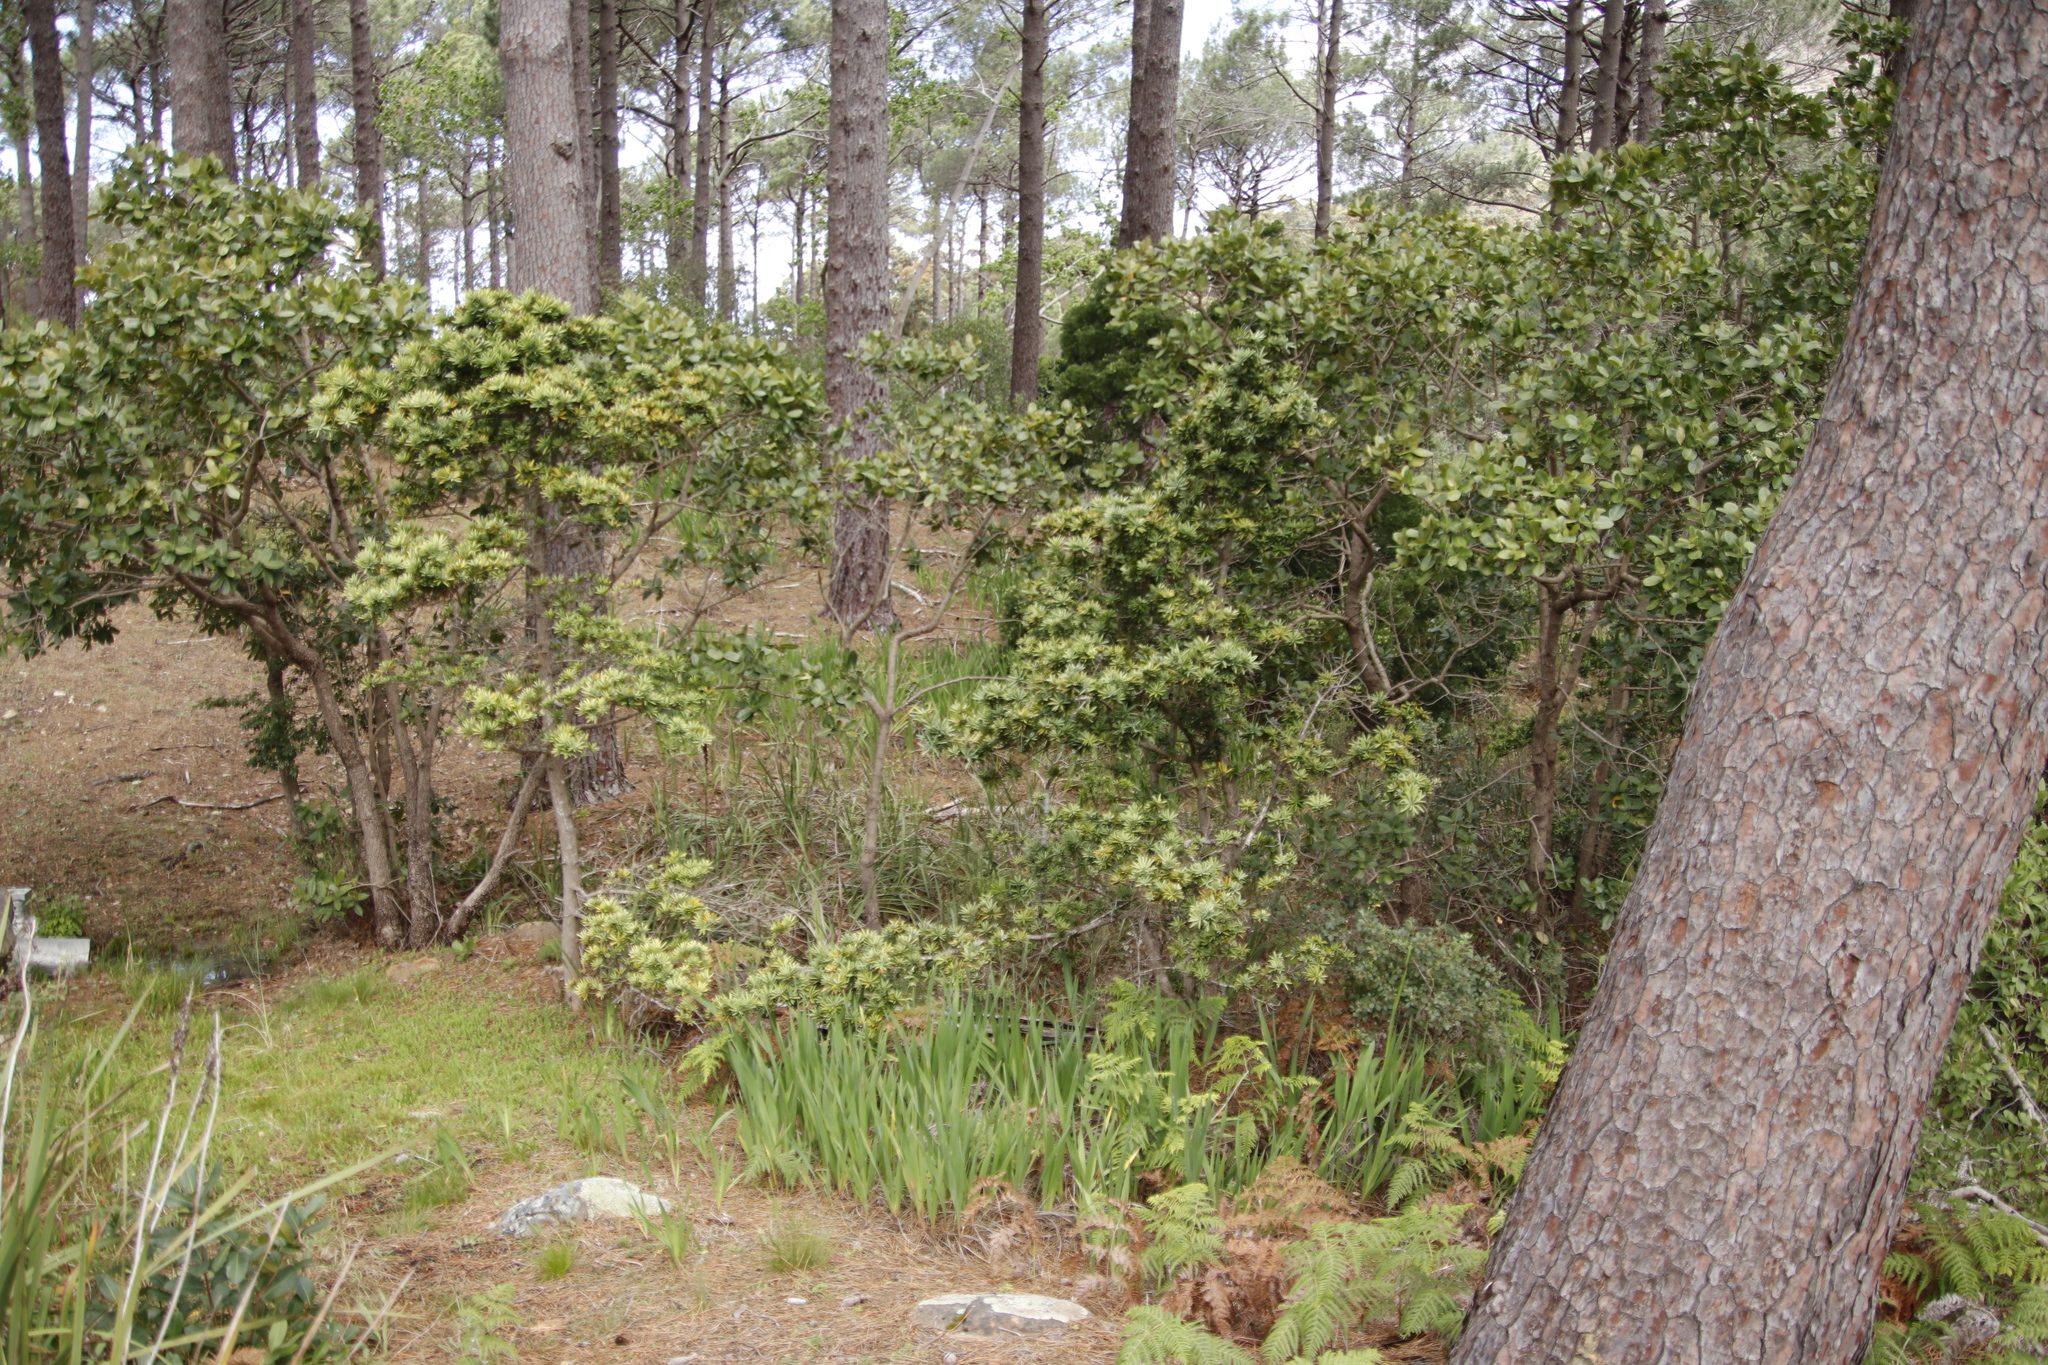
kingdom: Plantae
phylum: Tracheophyta
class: Magnoliopsida
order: Myrtales
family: Myrtaceae
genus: Syzygium
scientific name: Syzygium cordatum
